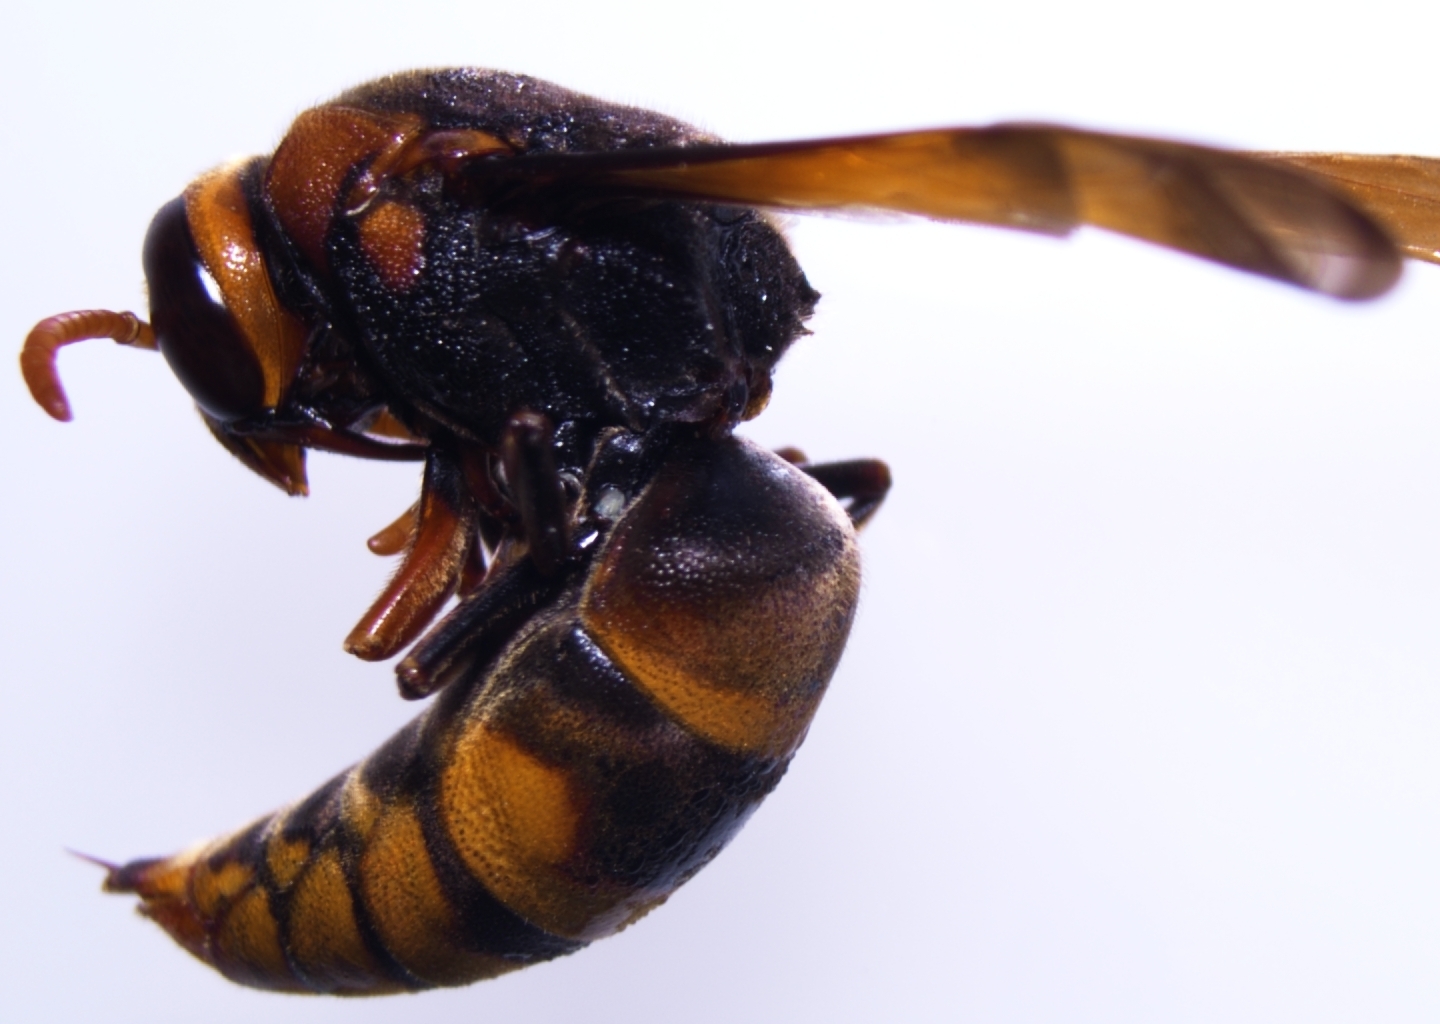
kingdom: Animalia
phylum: Arthropoda
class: Insecta
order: Hymenoptera
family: Eumenidae
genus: Rhynchium
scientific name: Rhynchium haemorrhoidale
